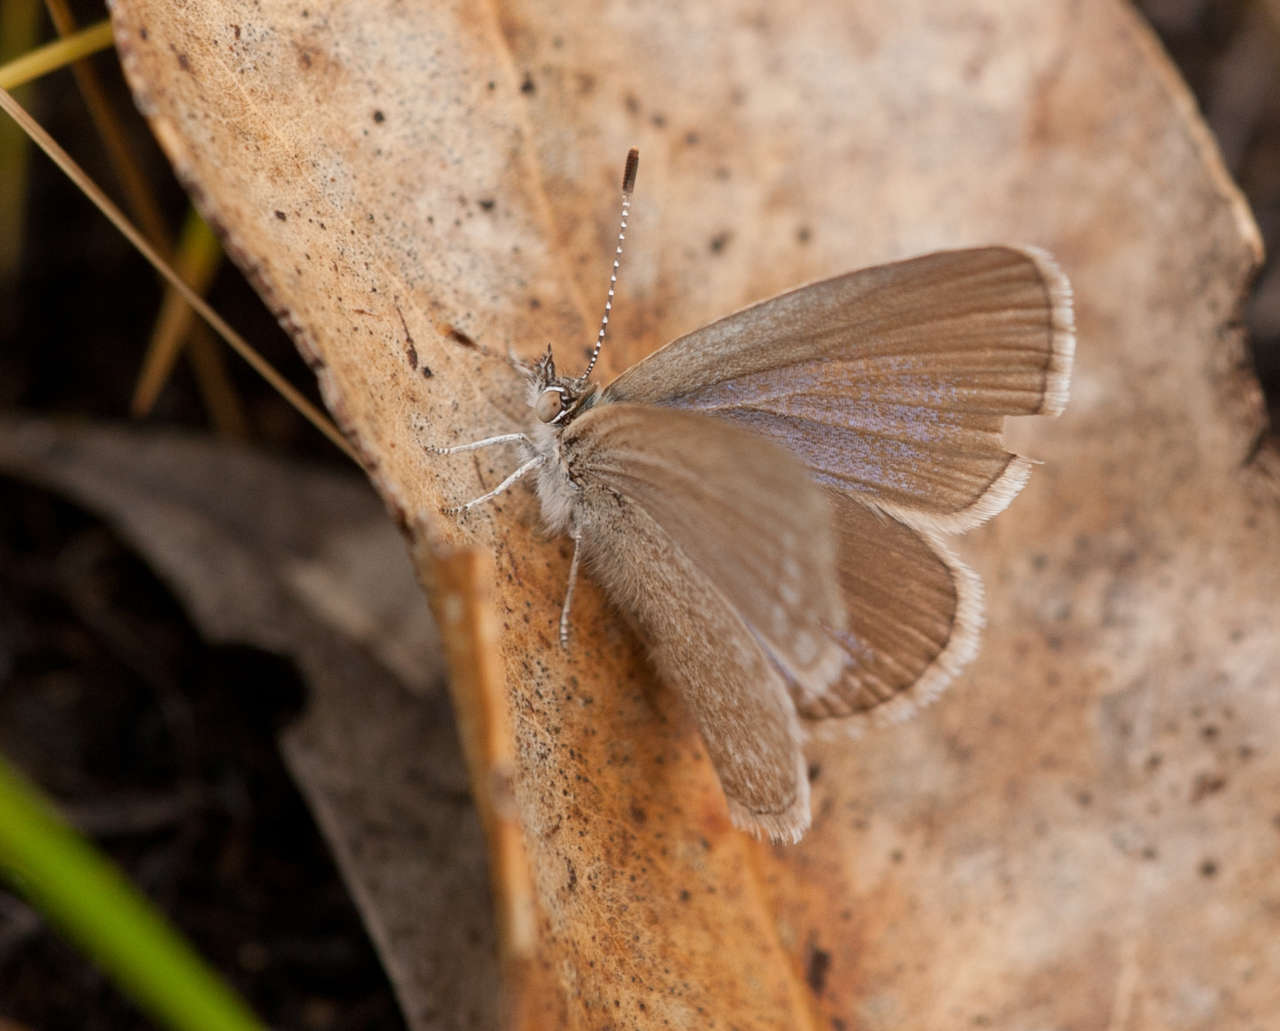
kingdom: Animalia
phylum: Arthropoda
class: Insecta
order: Lepidoptera
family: Lycaenidae
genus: Zizina
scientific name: Zizina labradus
